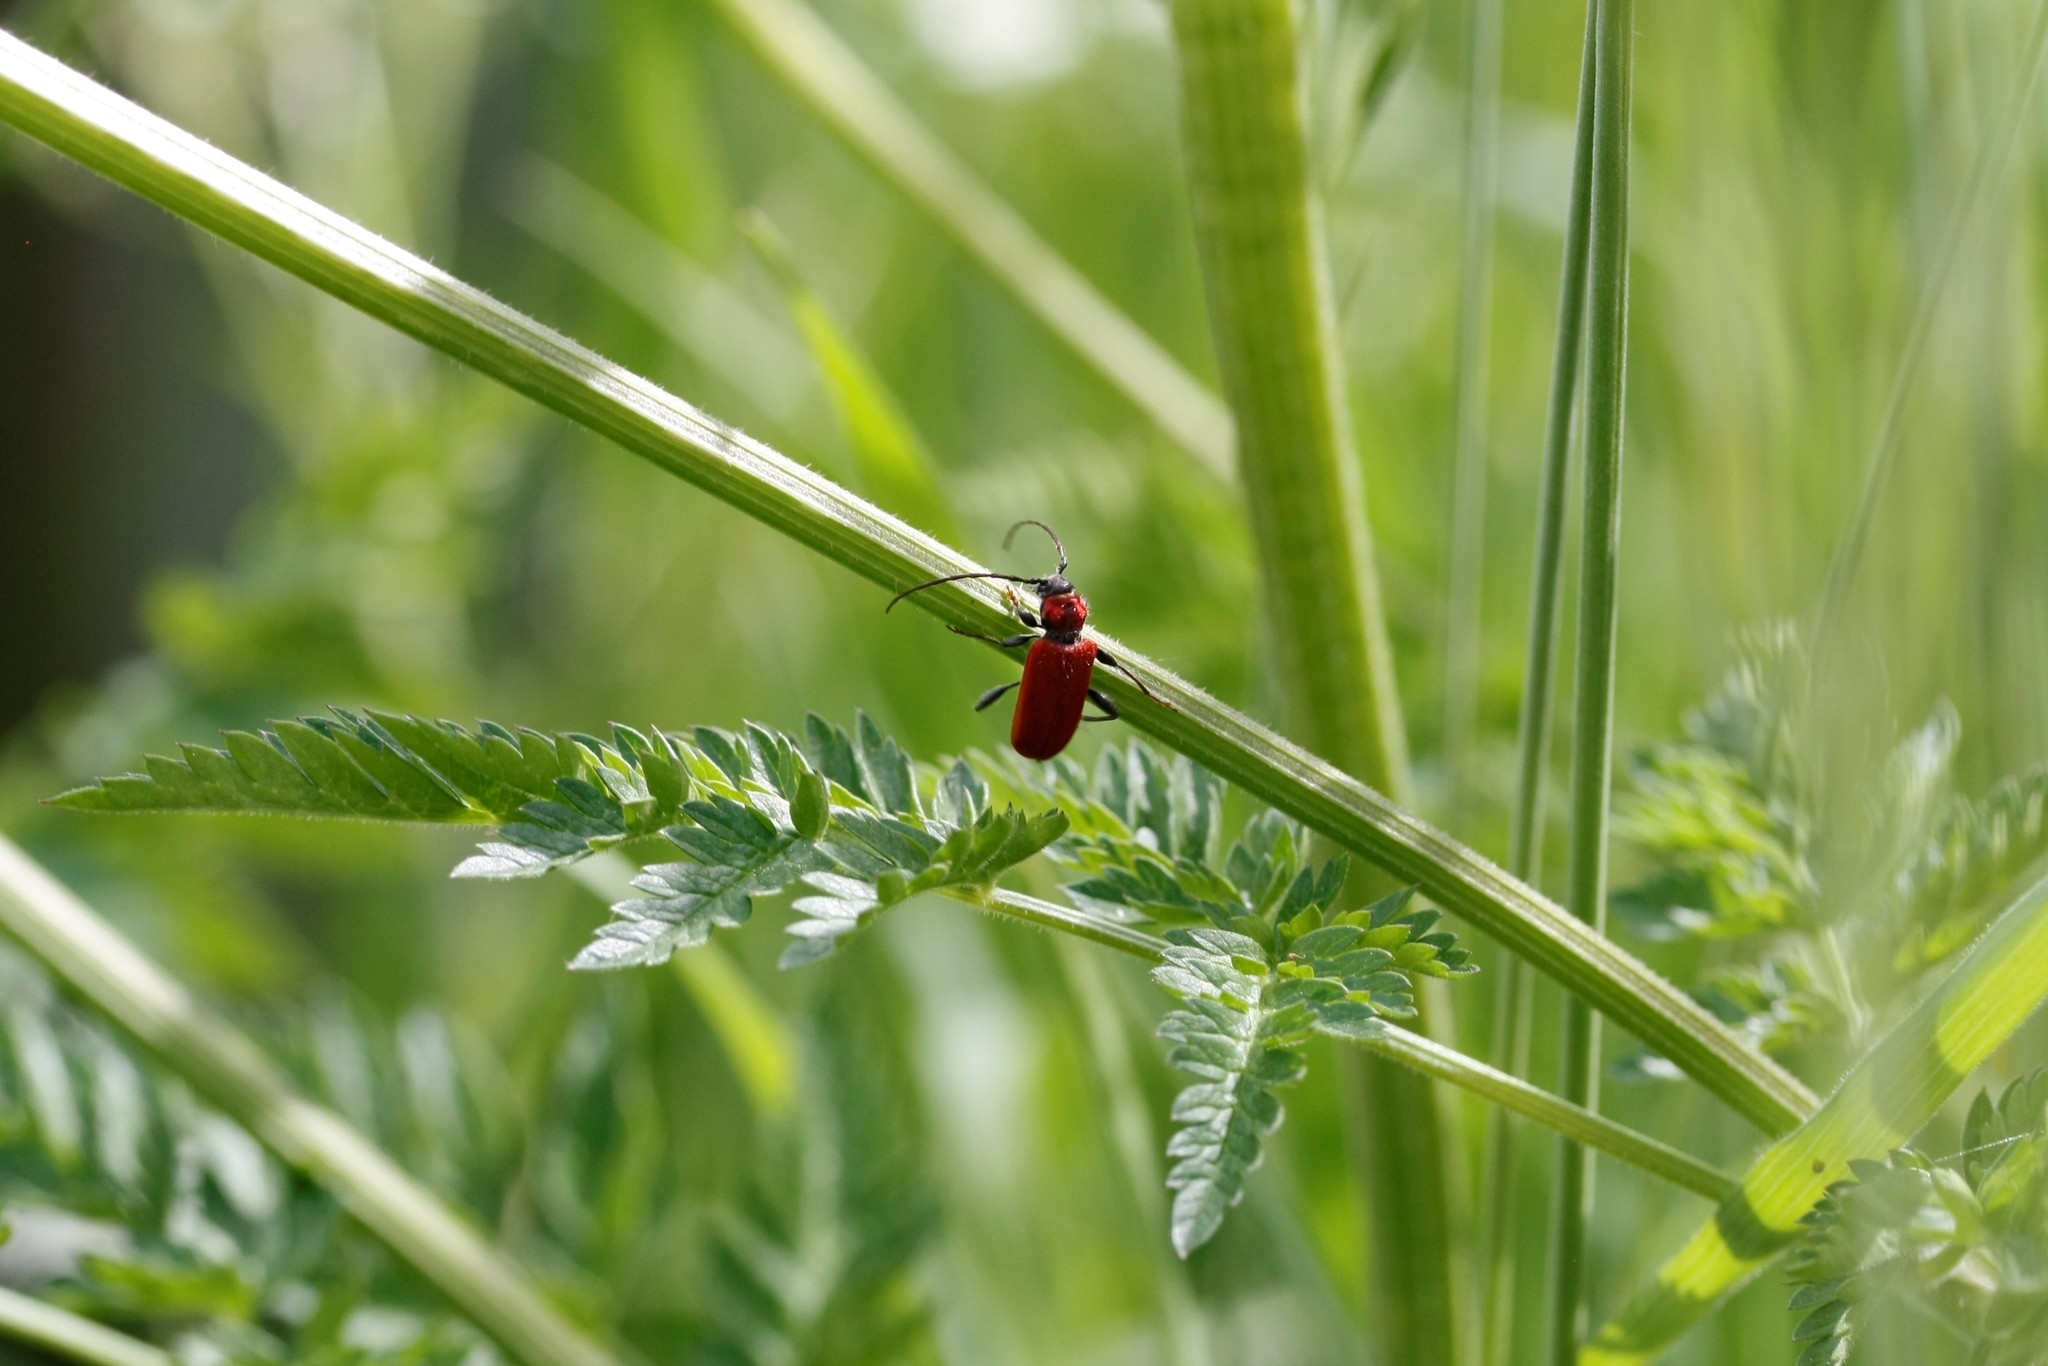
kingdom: Animalia
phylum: Arthropoda
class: Insecta
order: Coleoptera
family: Cerambycidae
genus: Pyrrhidium
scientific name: Pyrrhidium sanguineum
